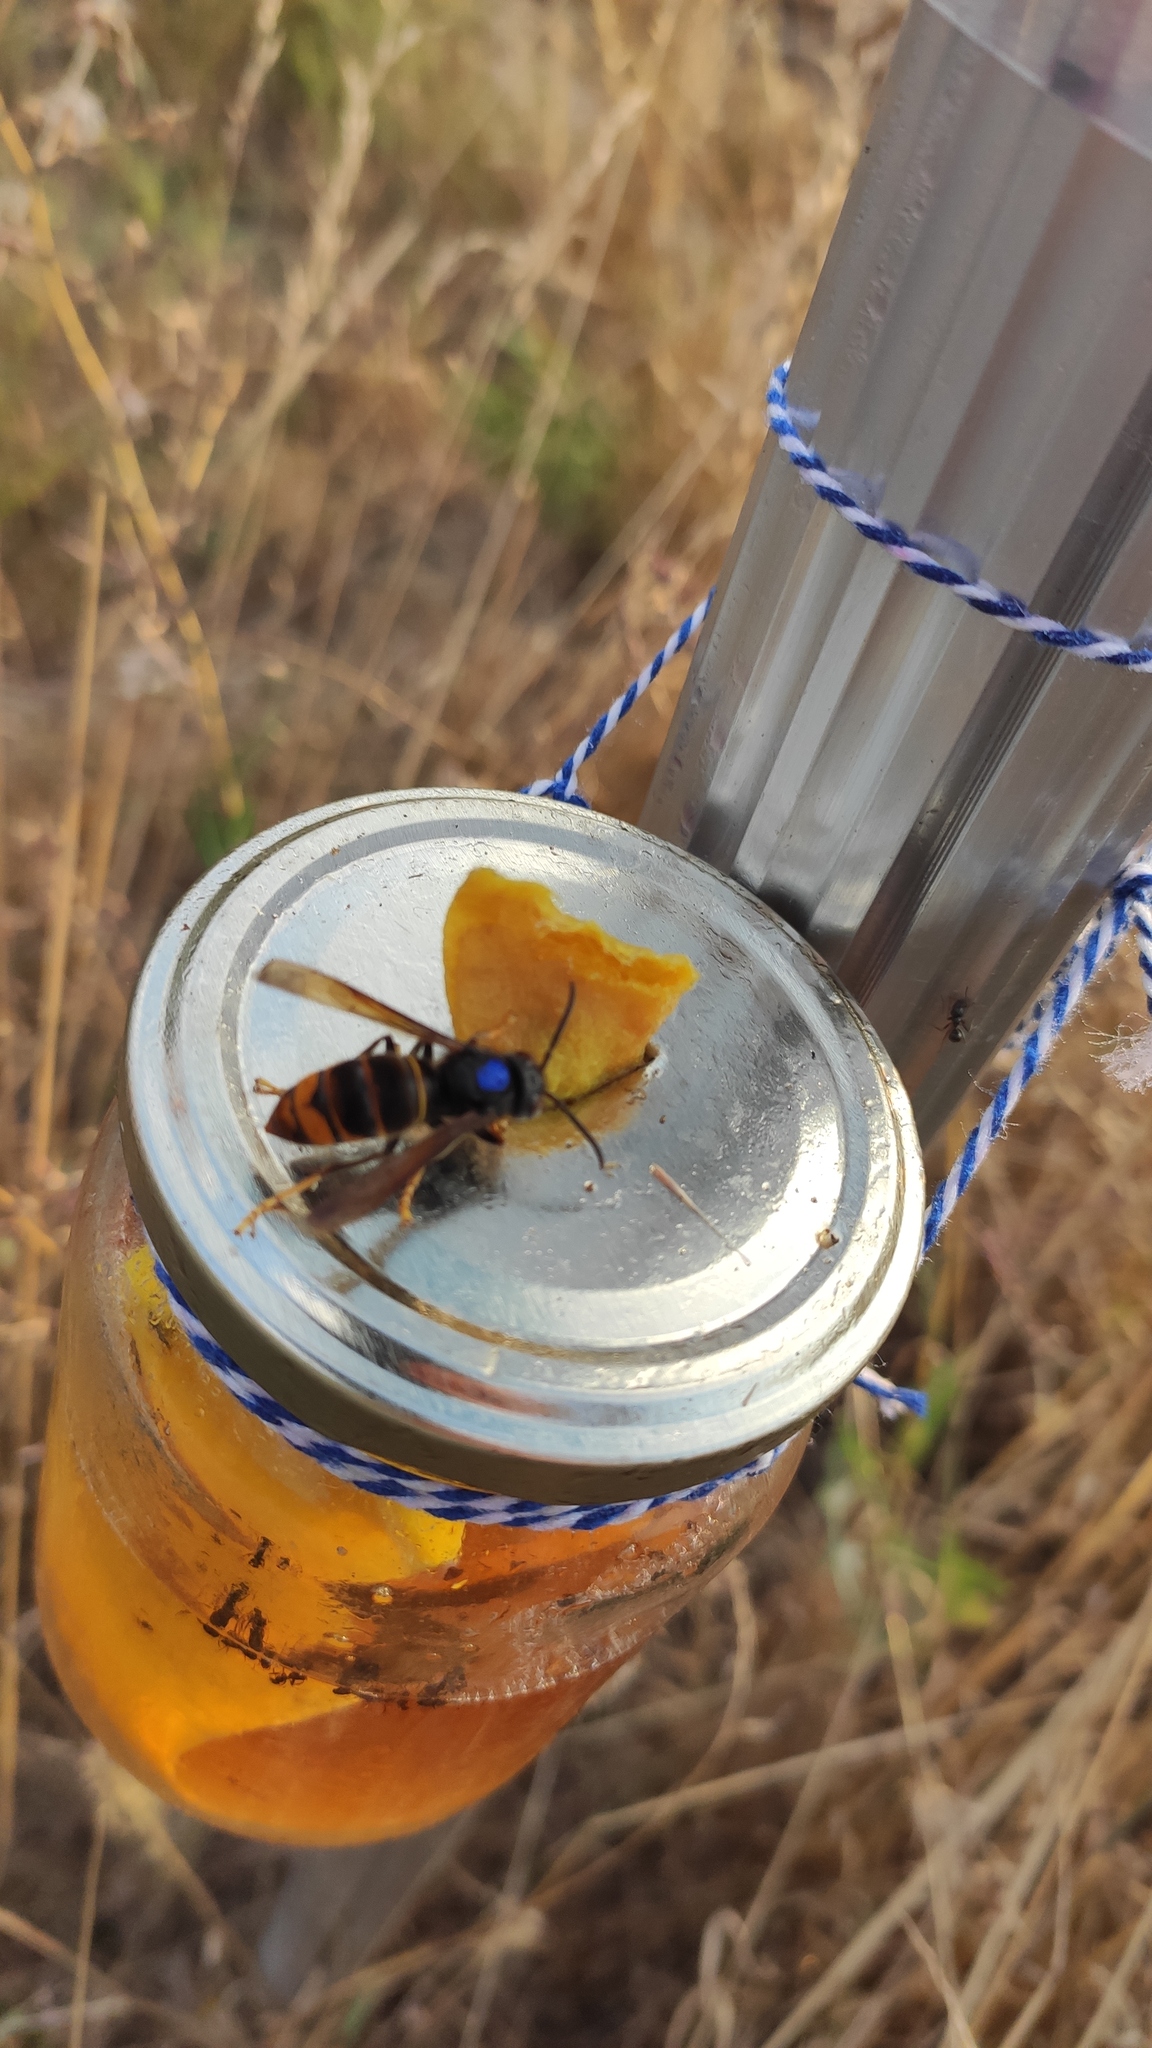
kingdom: Animalia
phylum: Arthropoda
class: Insecta
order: Hymenoptera
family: Vespidae
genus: Vespa
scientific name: Vespa velutina
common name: Asian hornet
